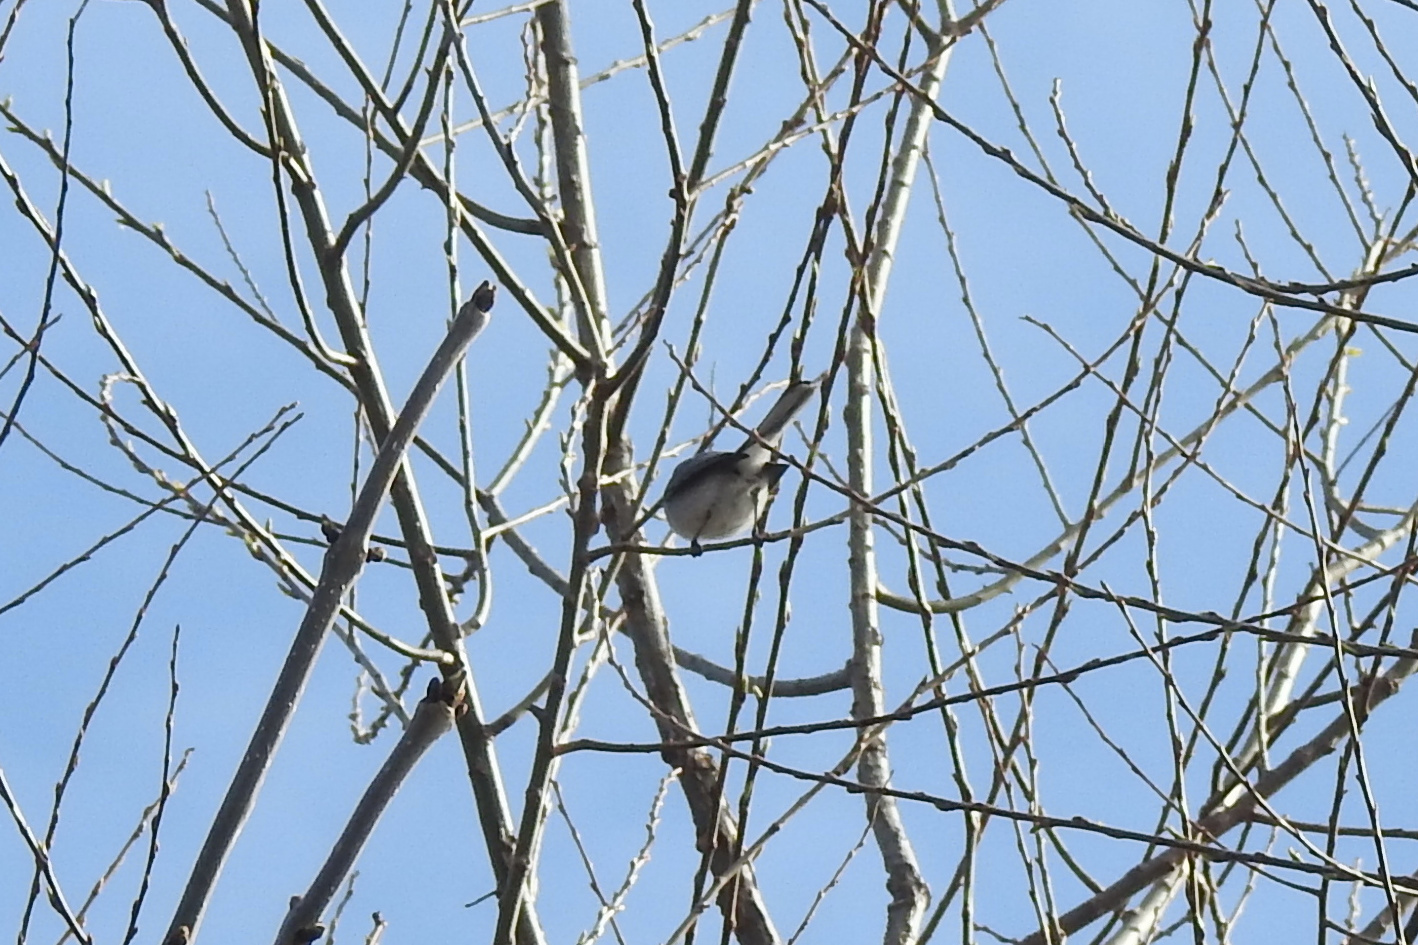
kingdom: Animalia
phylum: Chordata
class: Aves
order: Passeriformes
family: Polioptilidae
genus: Polioptila
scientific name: Polioptila caerulea
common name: Blue-gray gnatcatcher
